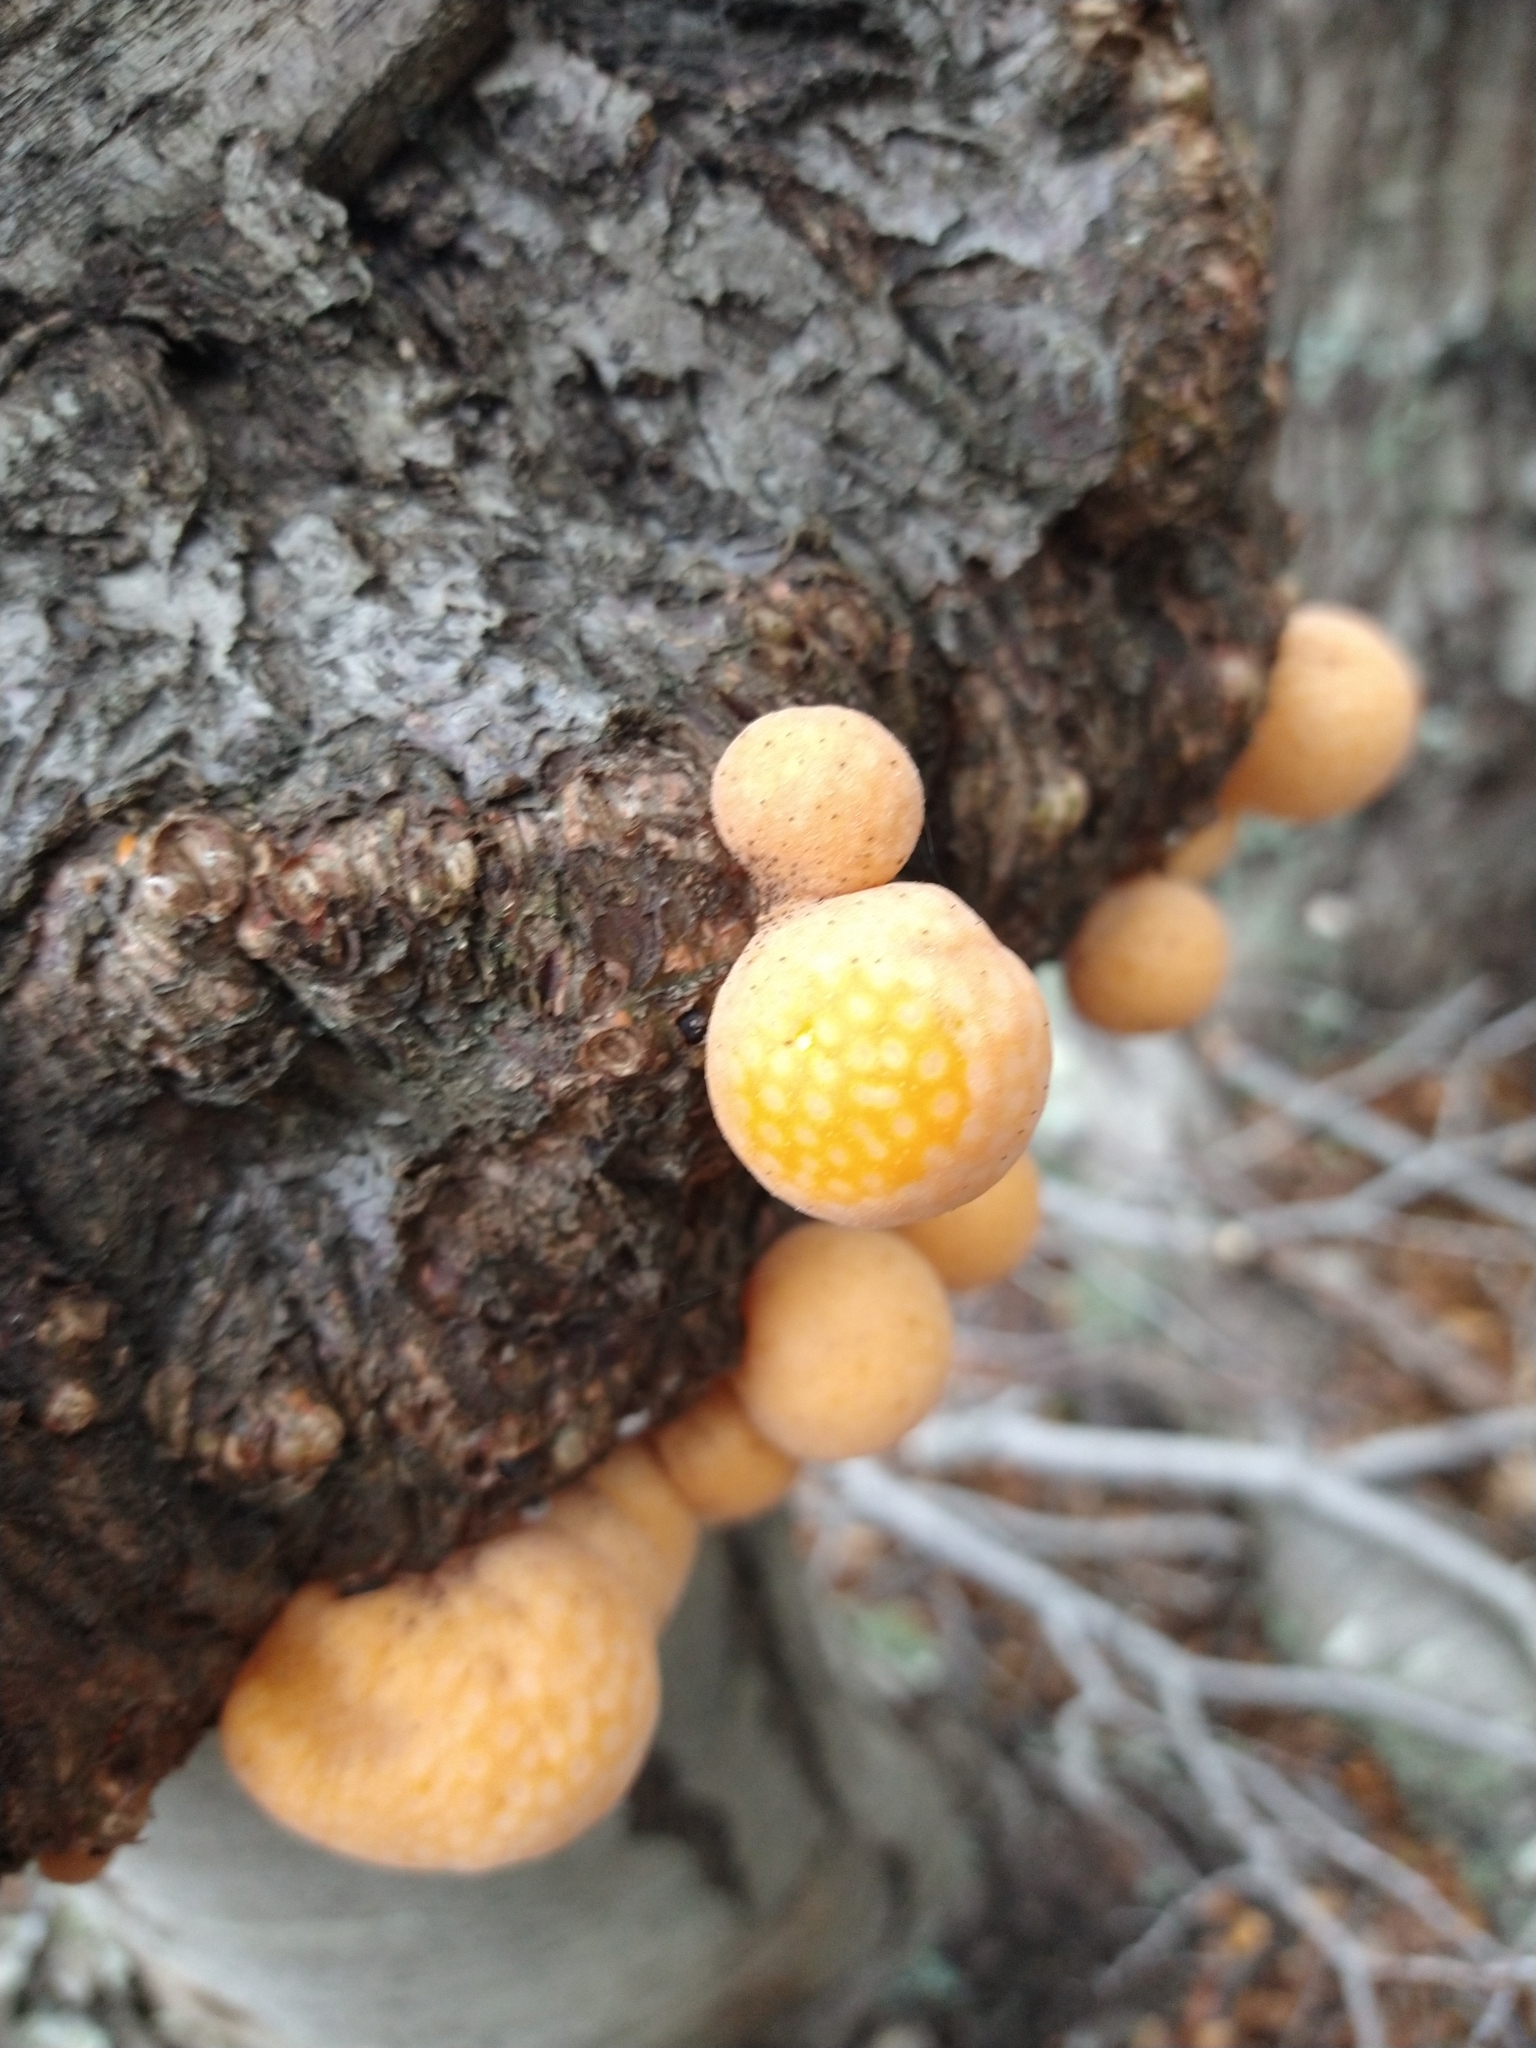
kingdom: Fungi
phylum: Ascomycota
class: Leotiomycetes
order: Cyttariales
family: Cyttariaceae
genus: Cyttaria
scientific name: Cyttaria darwinii
